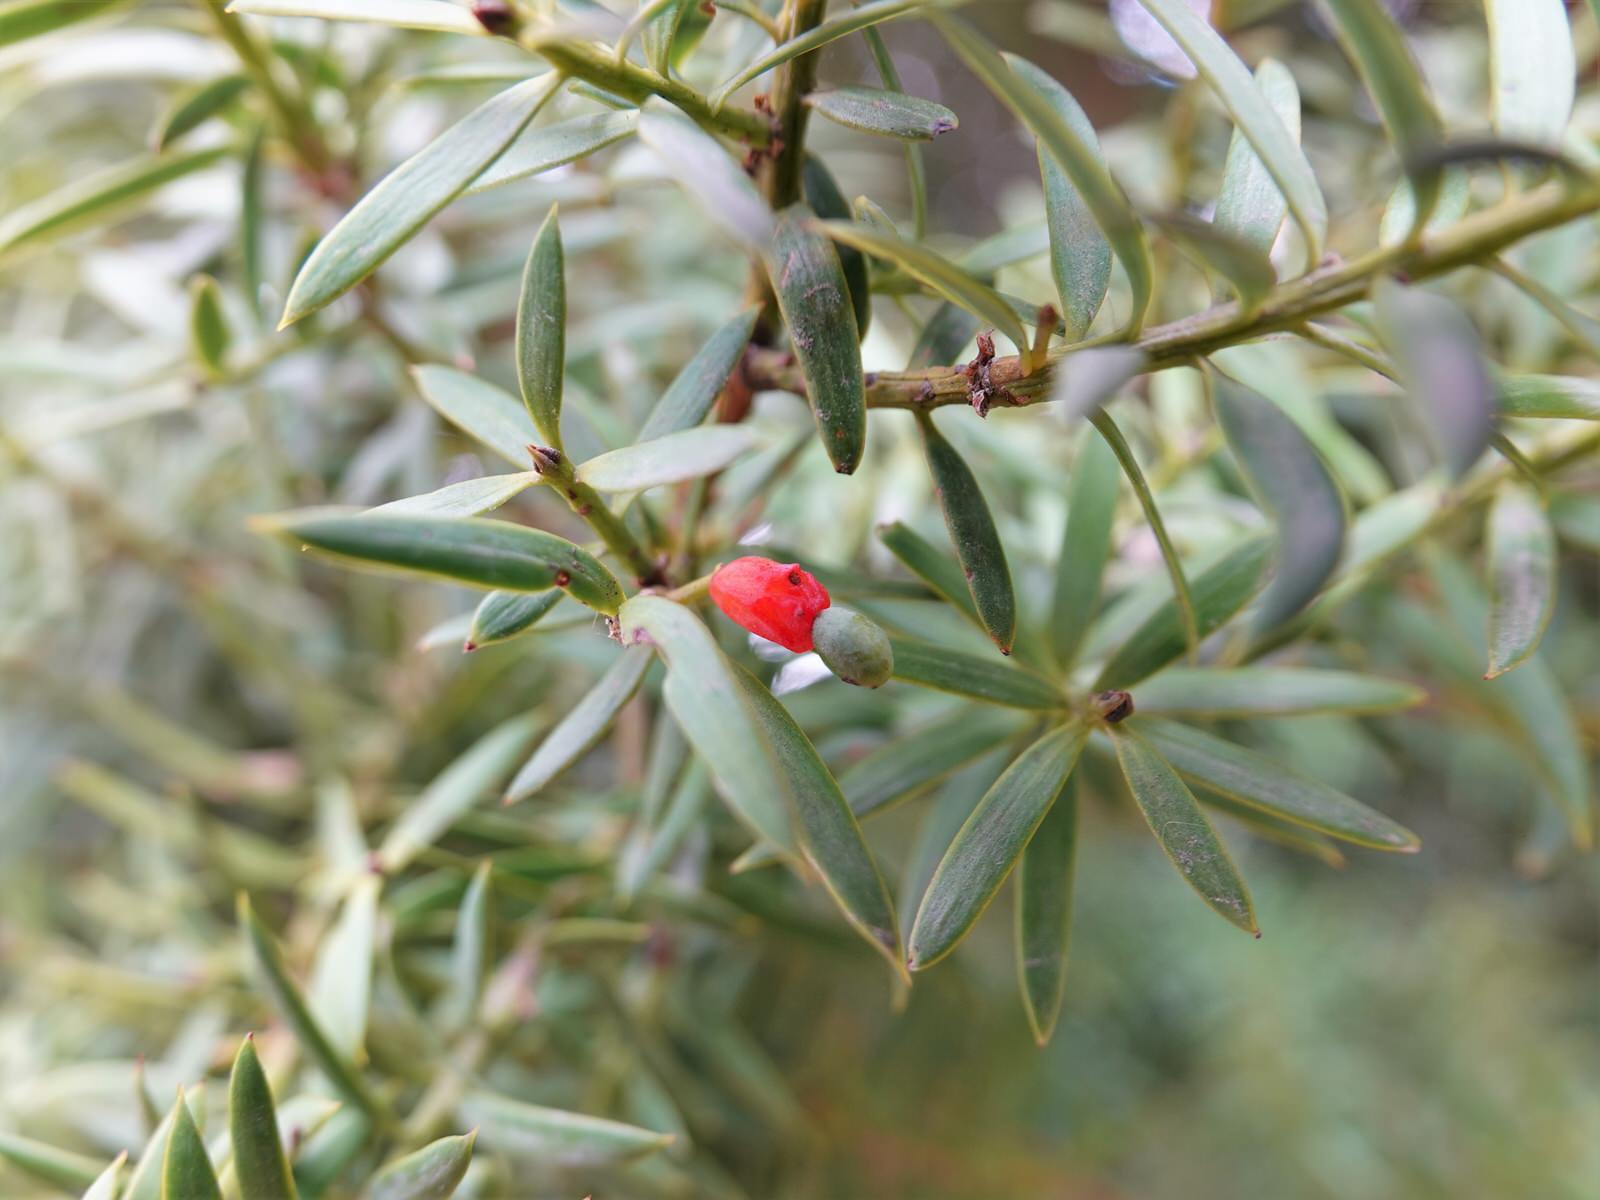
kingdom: Plantae
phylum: Tracheophyta
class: Pinopsida
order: Pinales
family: Podocarpaceae
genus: Podocarpus
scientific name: Podocarpus totara
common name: Totara
